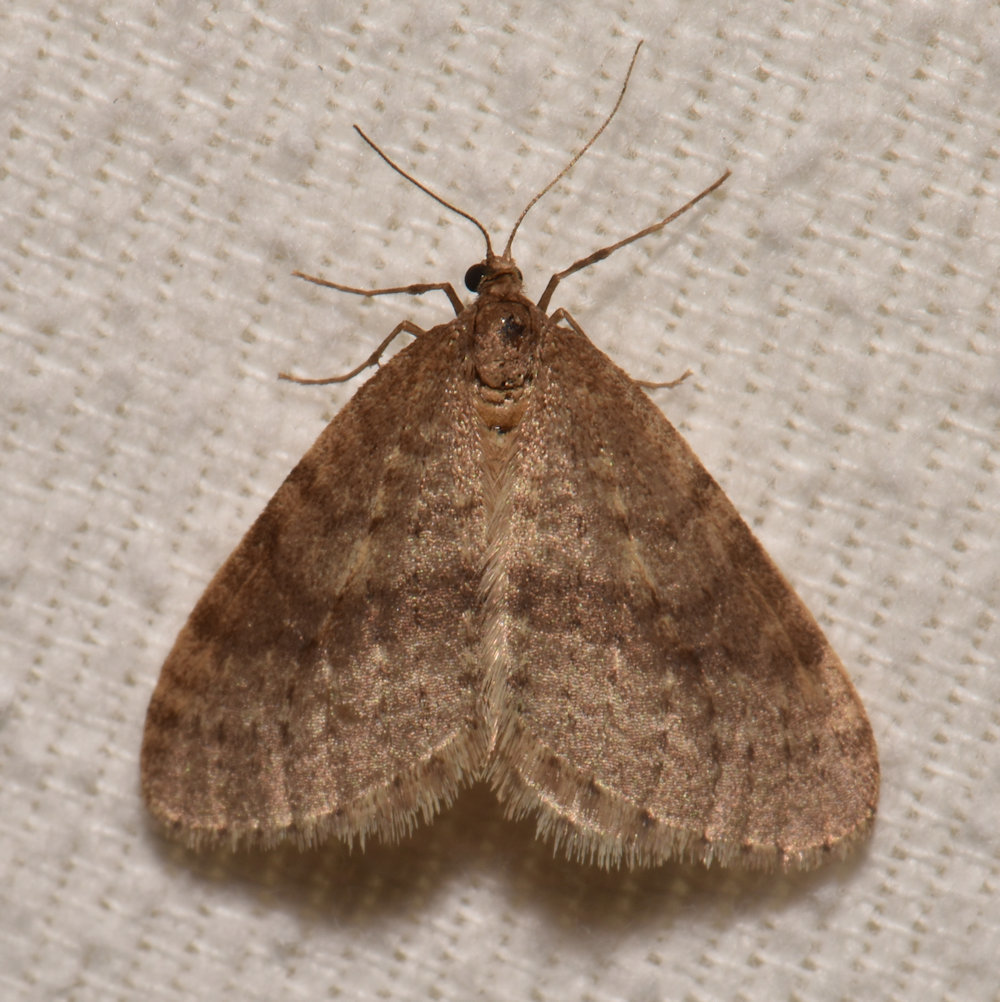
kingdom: Animalia
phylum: Arthropoda
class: Insecta
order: Lepidoptera
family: Geometridae
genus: Operophtera
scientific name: Operophtera bruceata
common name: Bruce spanworm
